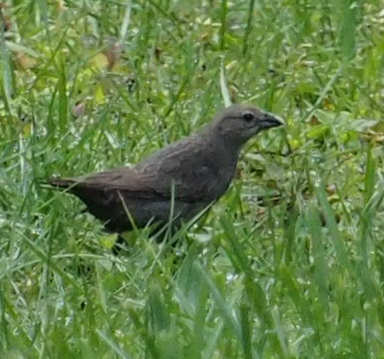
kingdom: Animalia
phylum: Chordata
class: Aves
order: Passeriformes
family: Icteridae
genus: Molothrus
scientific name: Molothrus ater
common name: Brown-headed cowbird
